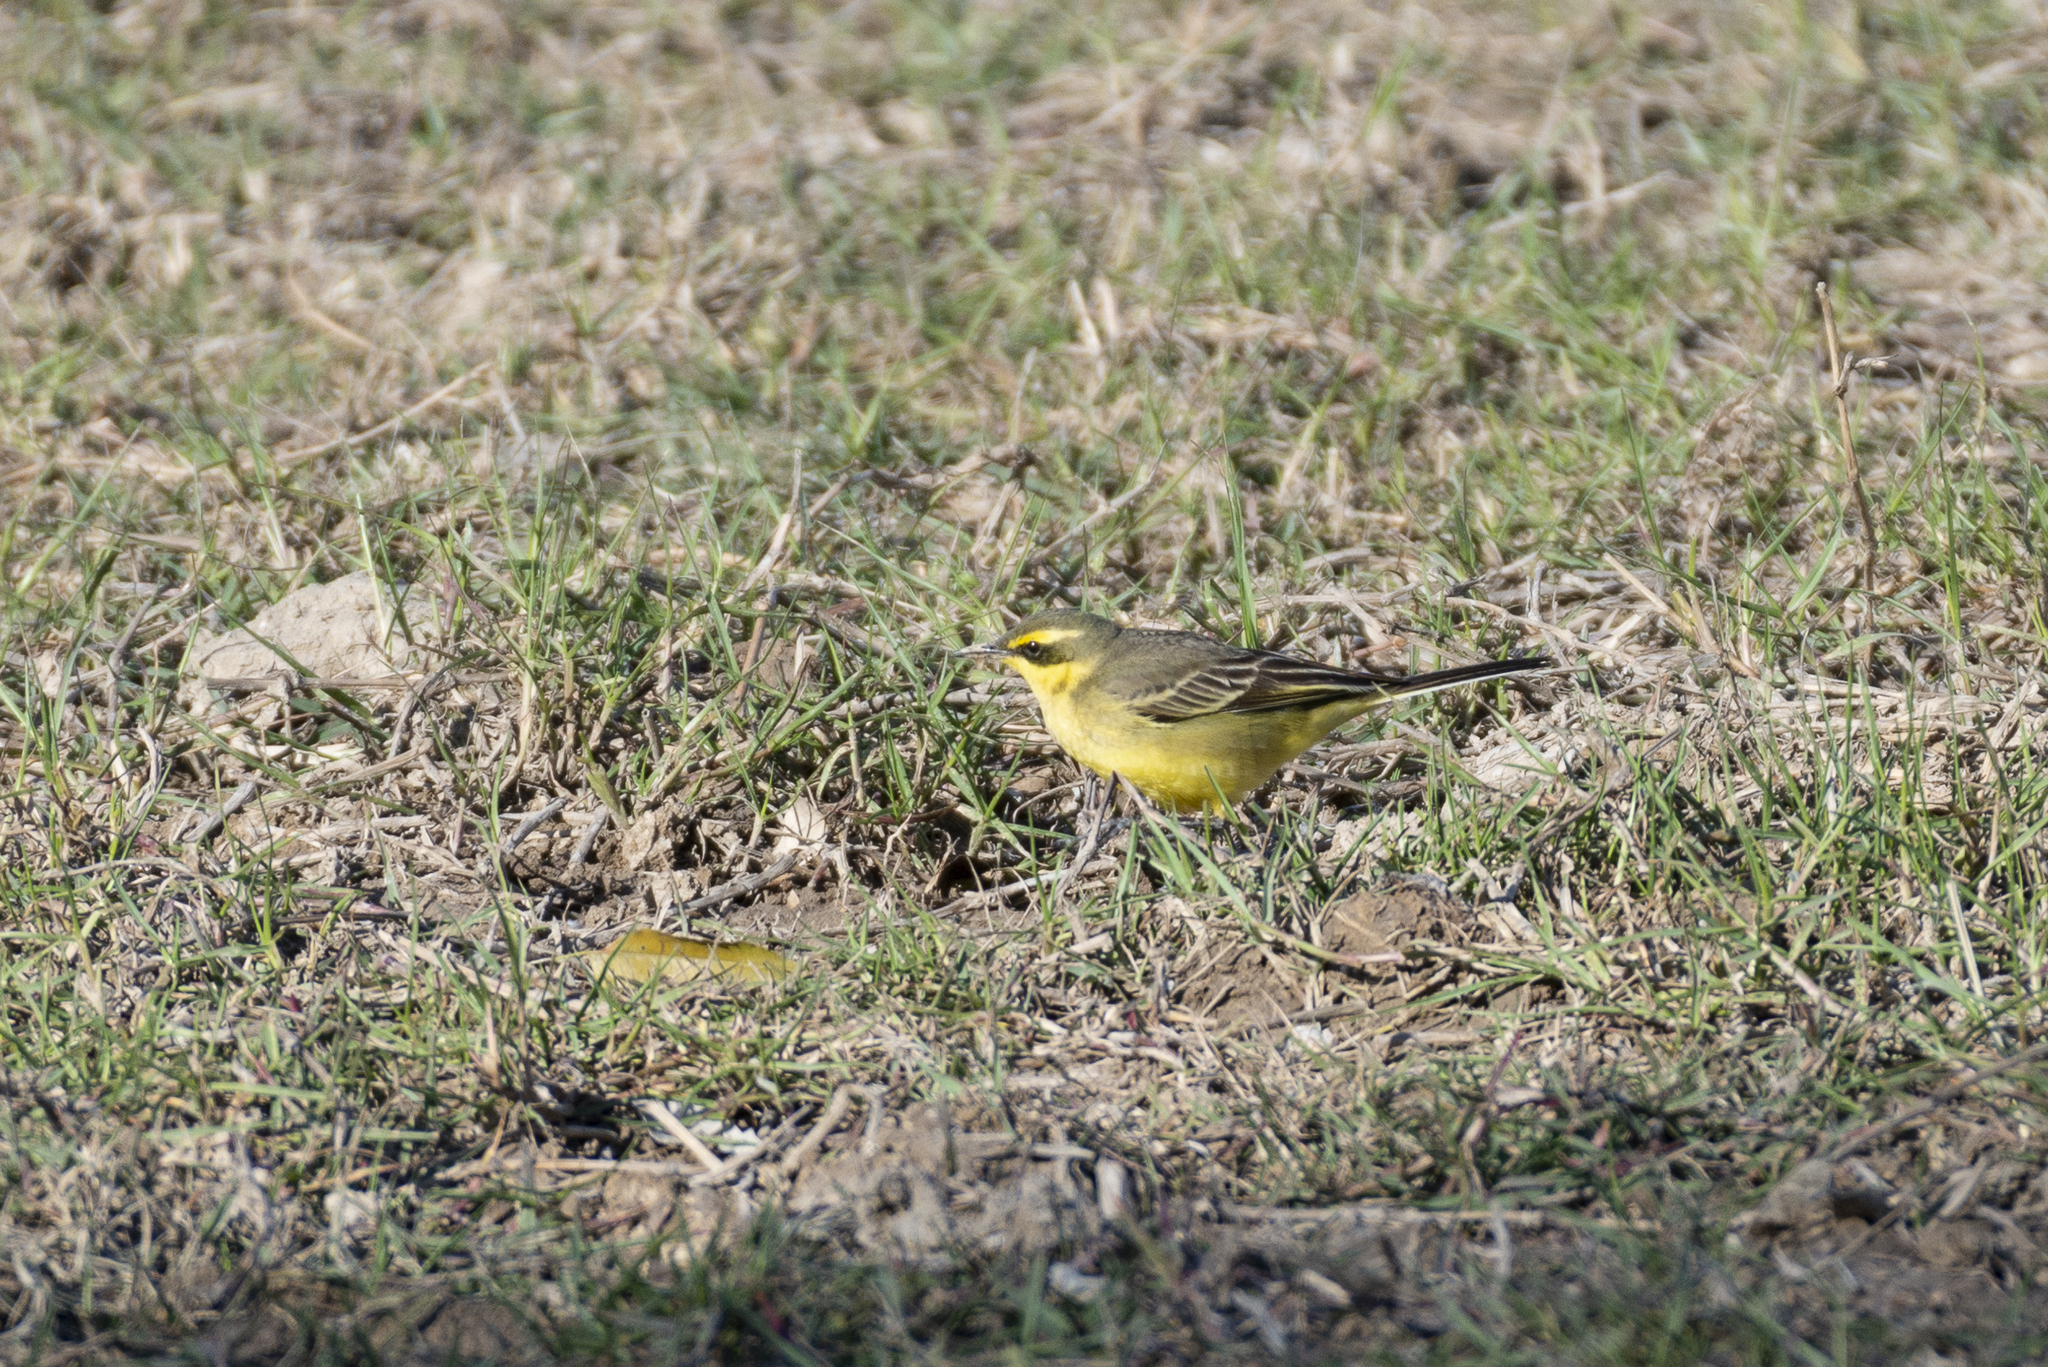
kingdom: Animalia
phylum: Chordata
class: Aves
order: Passeriformes
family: Motacillidae
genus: Motacilla
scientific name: Motacilla tschutschensis
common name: Eastern yellow wagtail
